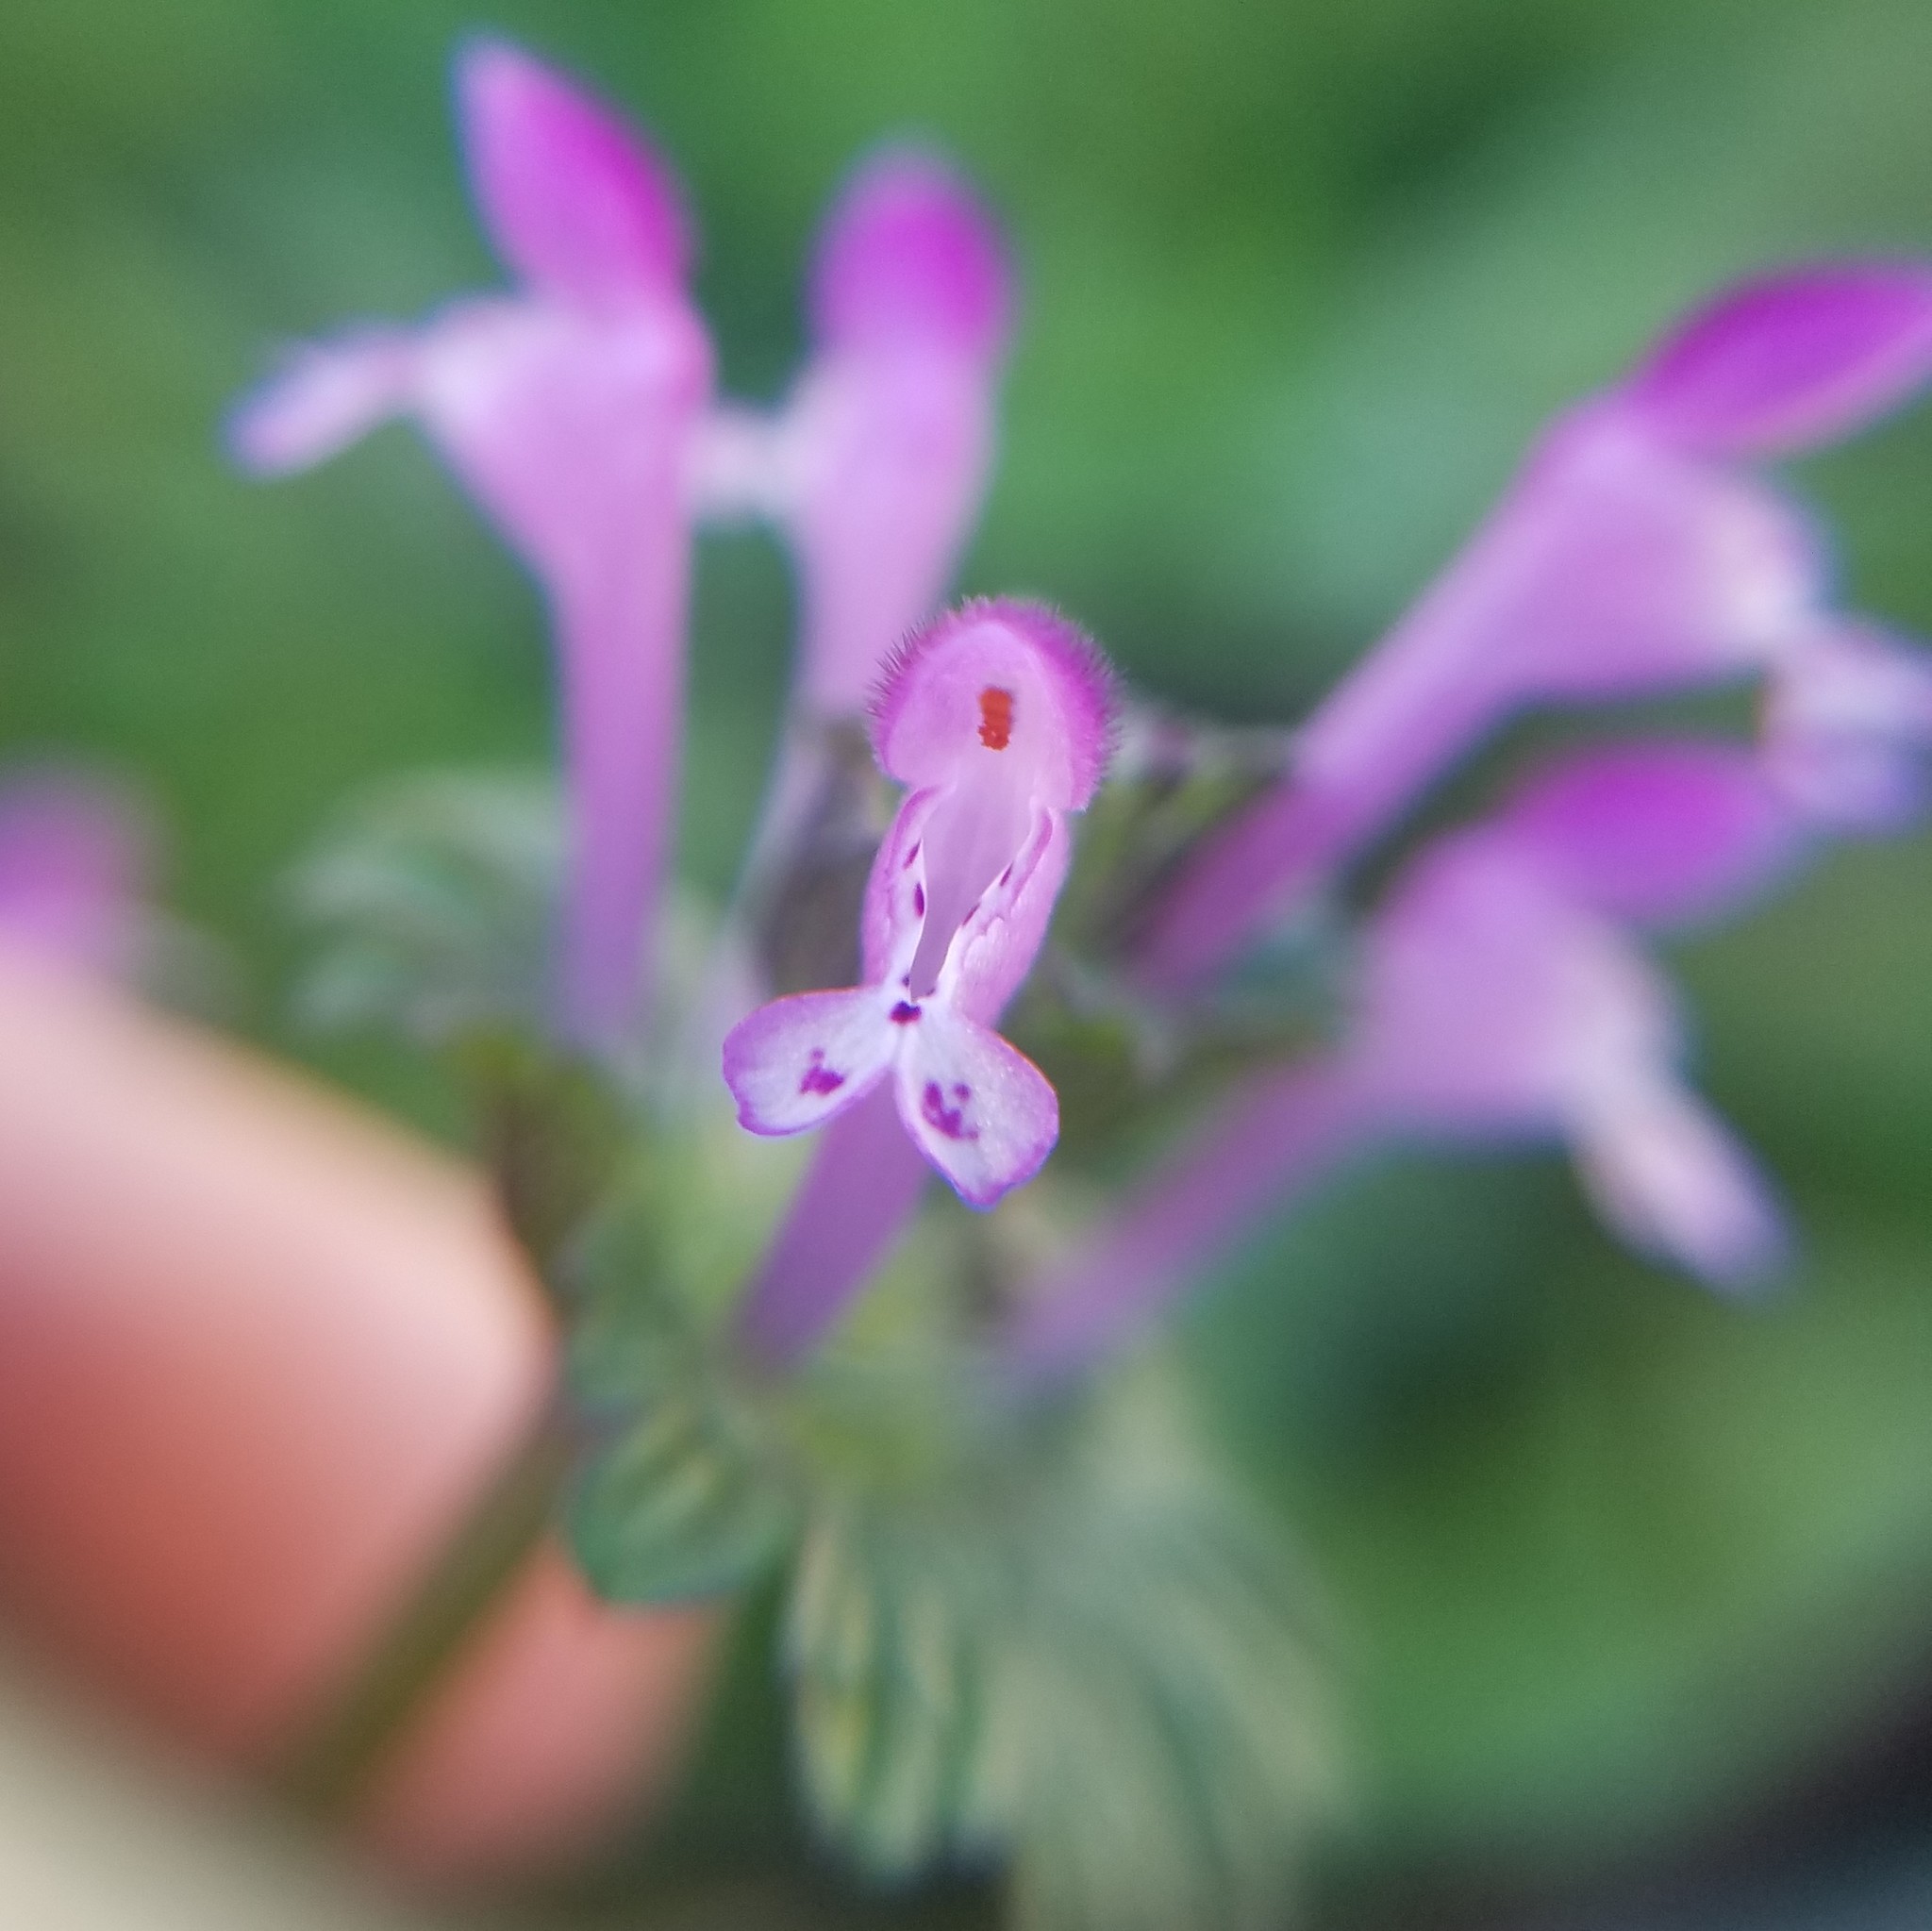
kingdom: Plantae
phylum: Tracheophyta
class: Magnoliopsida
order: Lamiales
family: Lamiaceae
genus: Lamium
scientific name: Lamium amplexicaule
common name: Henbit dead-nettle
